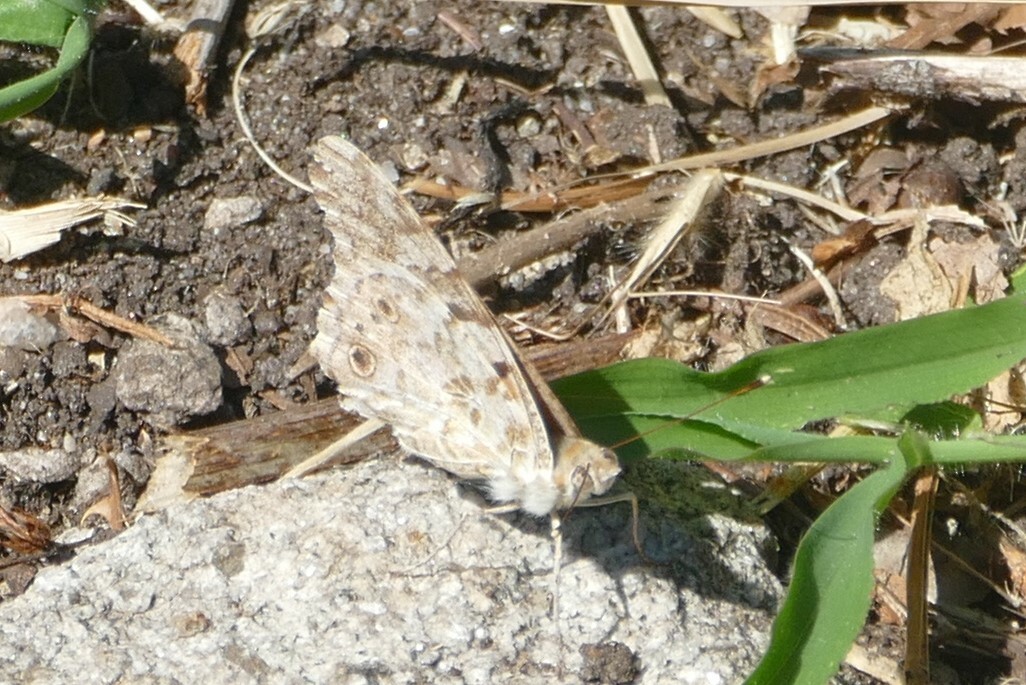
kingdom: Animalia
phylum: Arthropoda
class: Insecta
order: Lepidoptera
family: Nymphalidae
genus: Vanessa
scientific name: Vanessa cardui
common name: Painted lady
